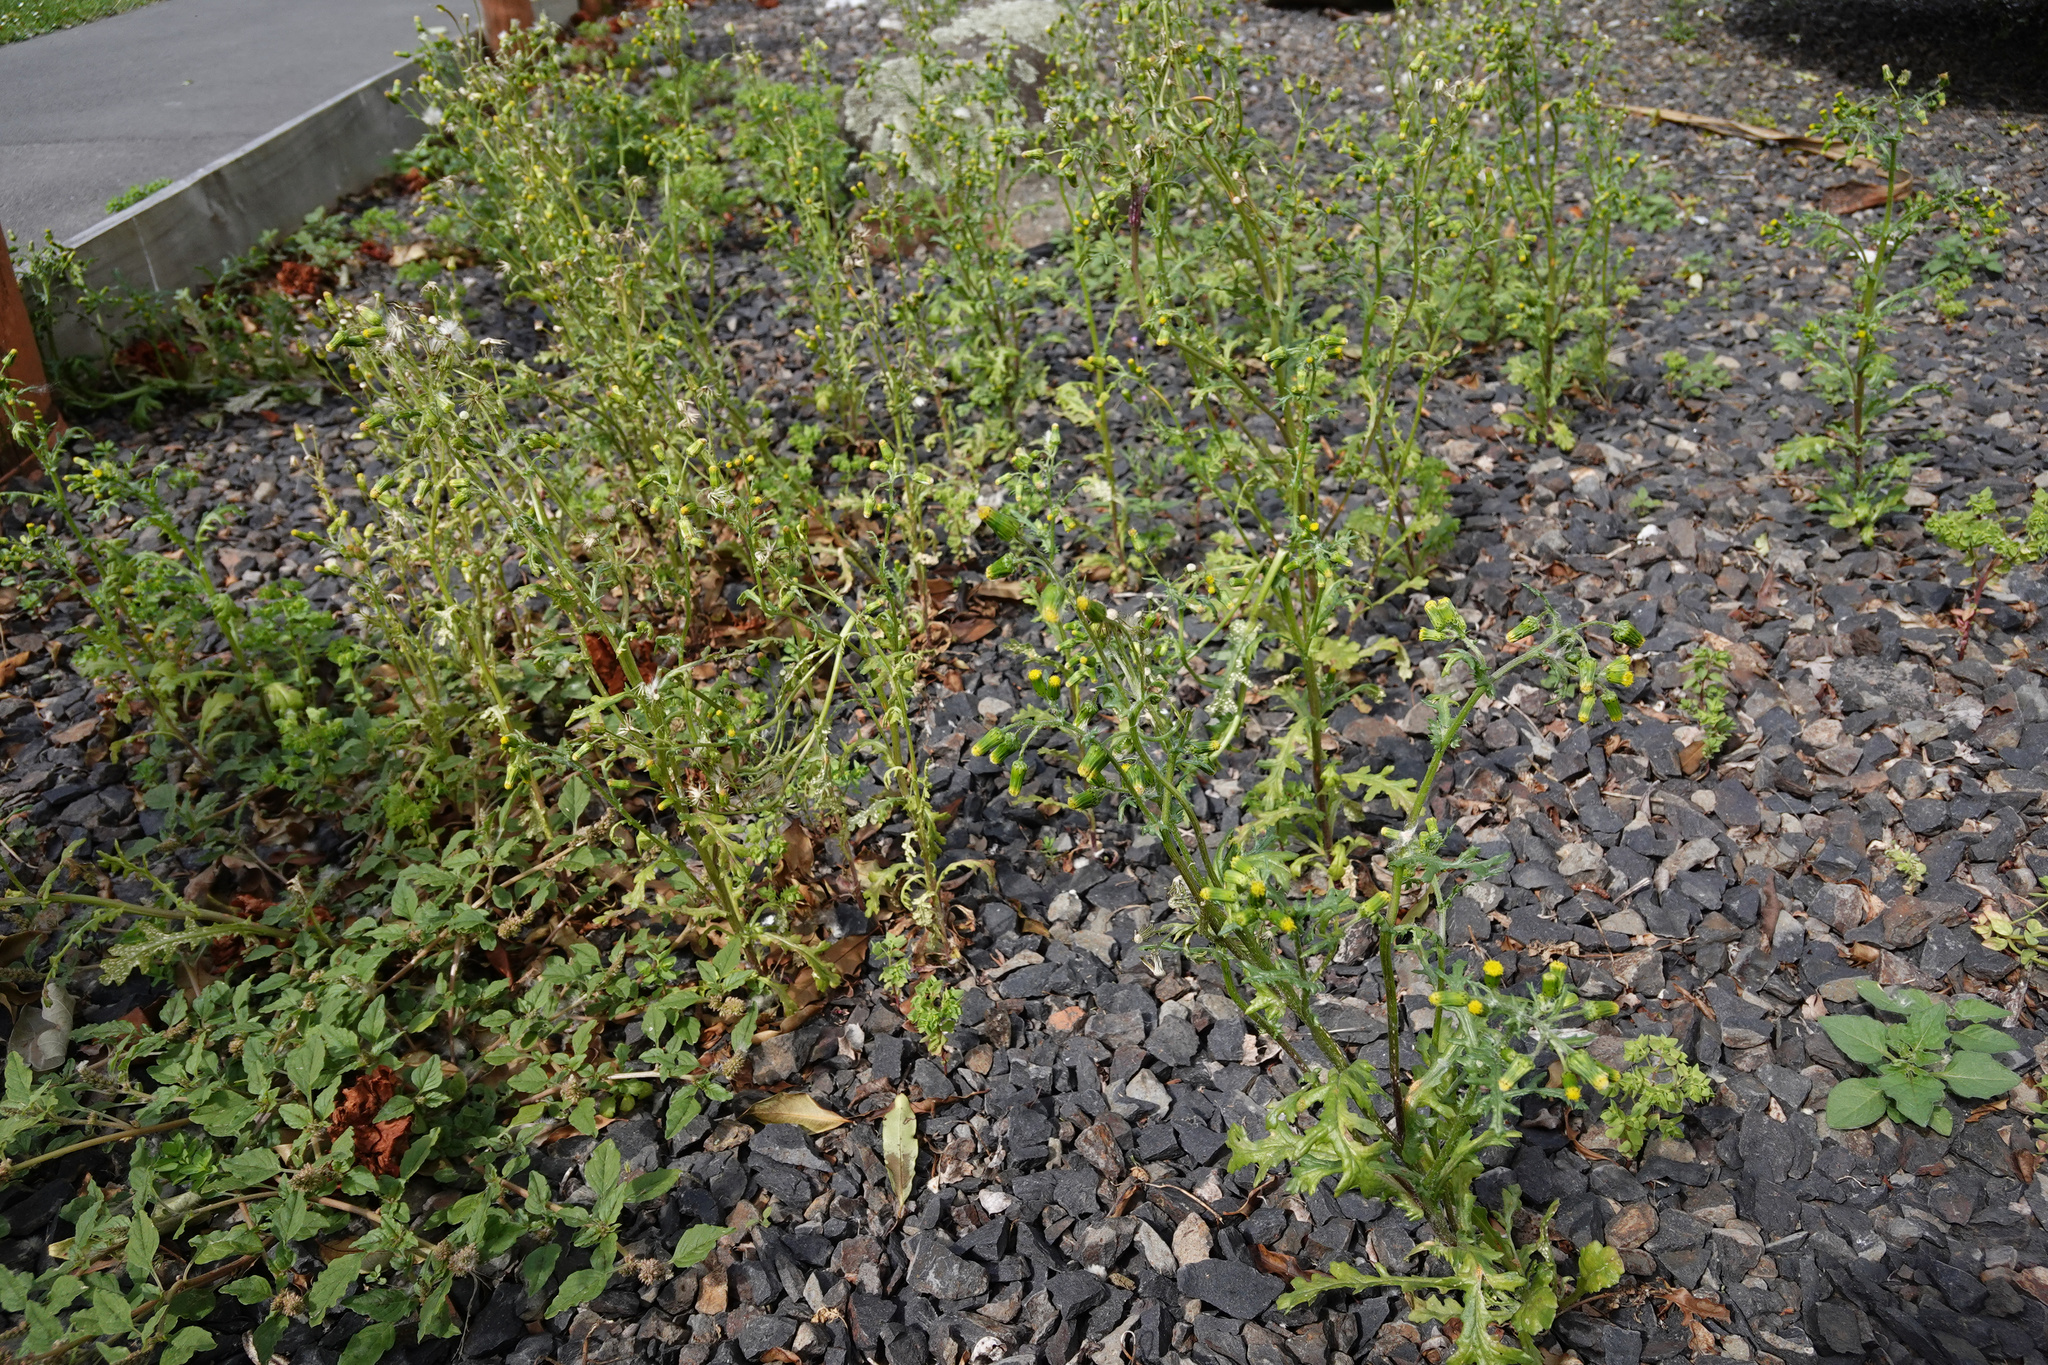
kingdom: Plantae
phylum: Tracheophyta
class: Magnoliopsida
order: Asterales
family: Asteraceae
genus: Senecio
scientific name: Senecio vulgaris
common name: Old-man-in-the-spring
